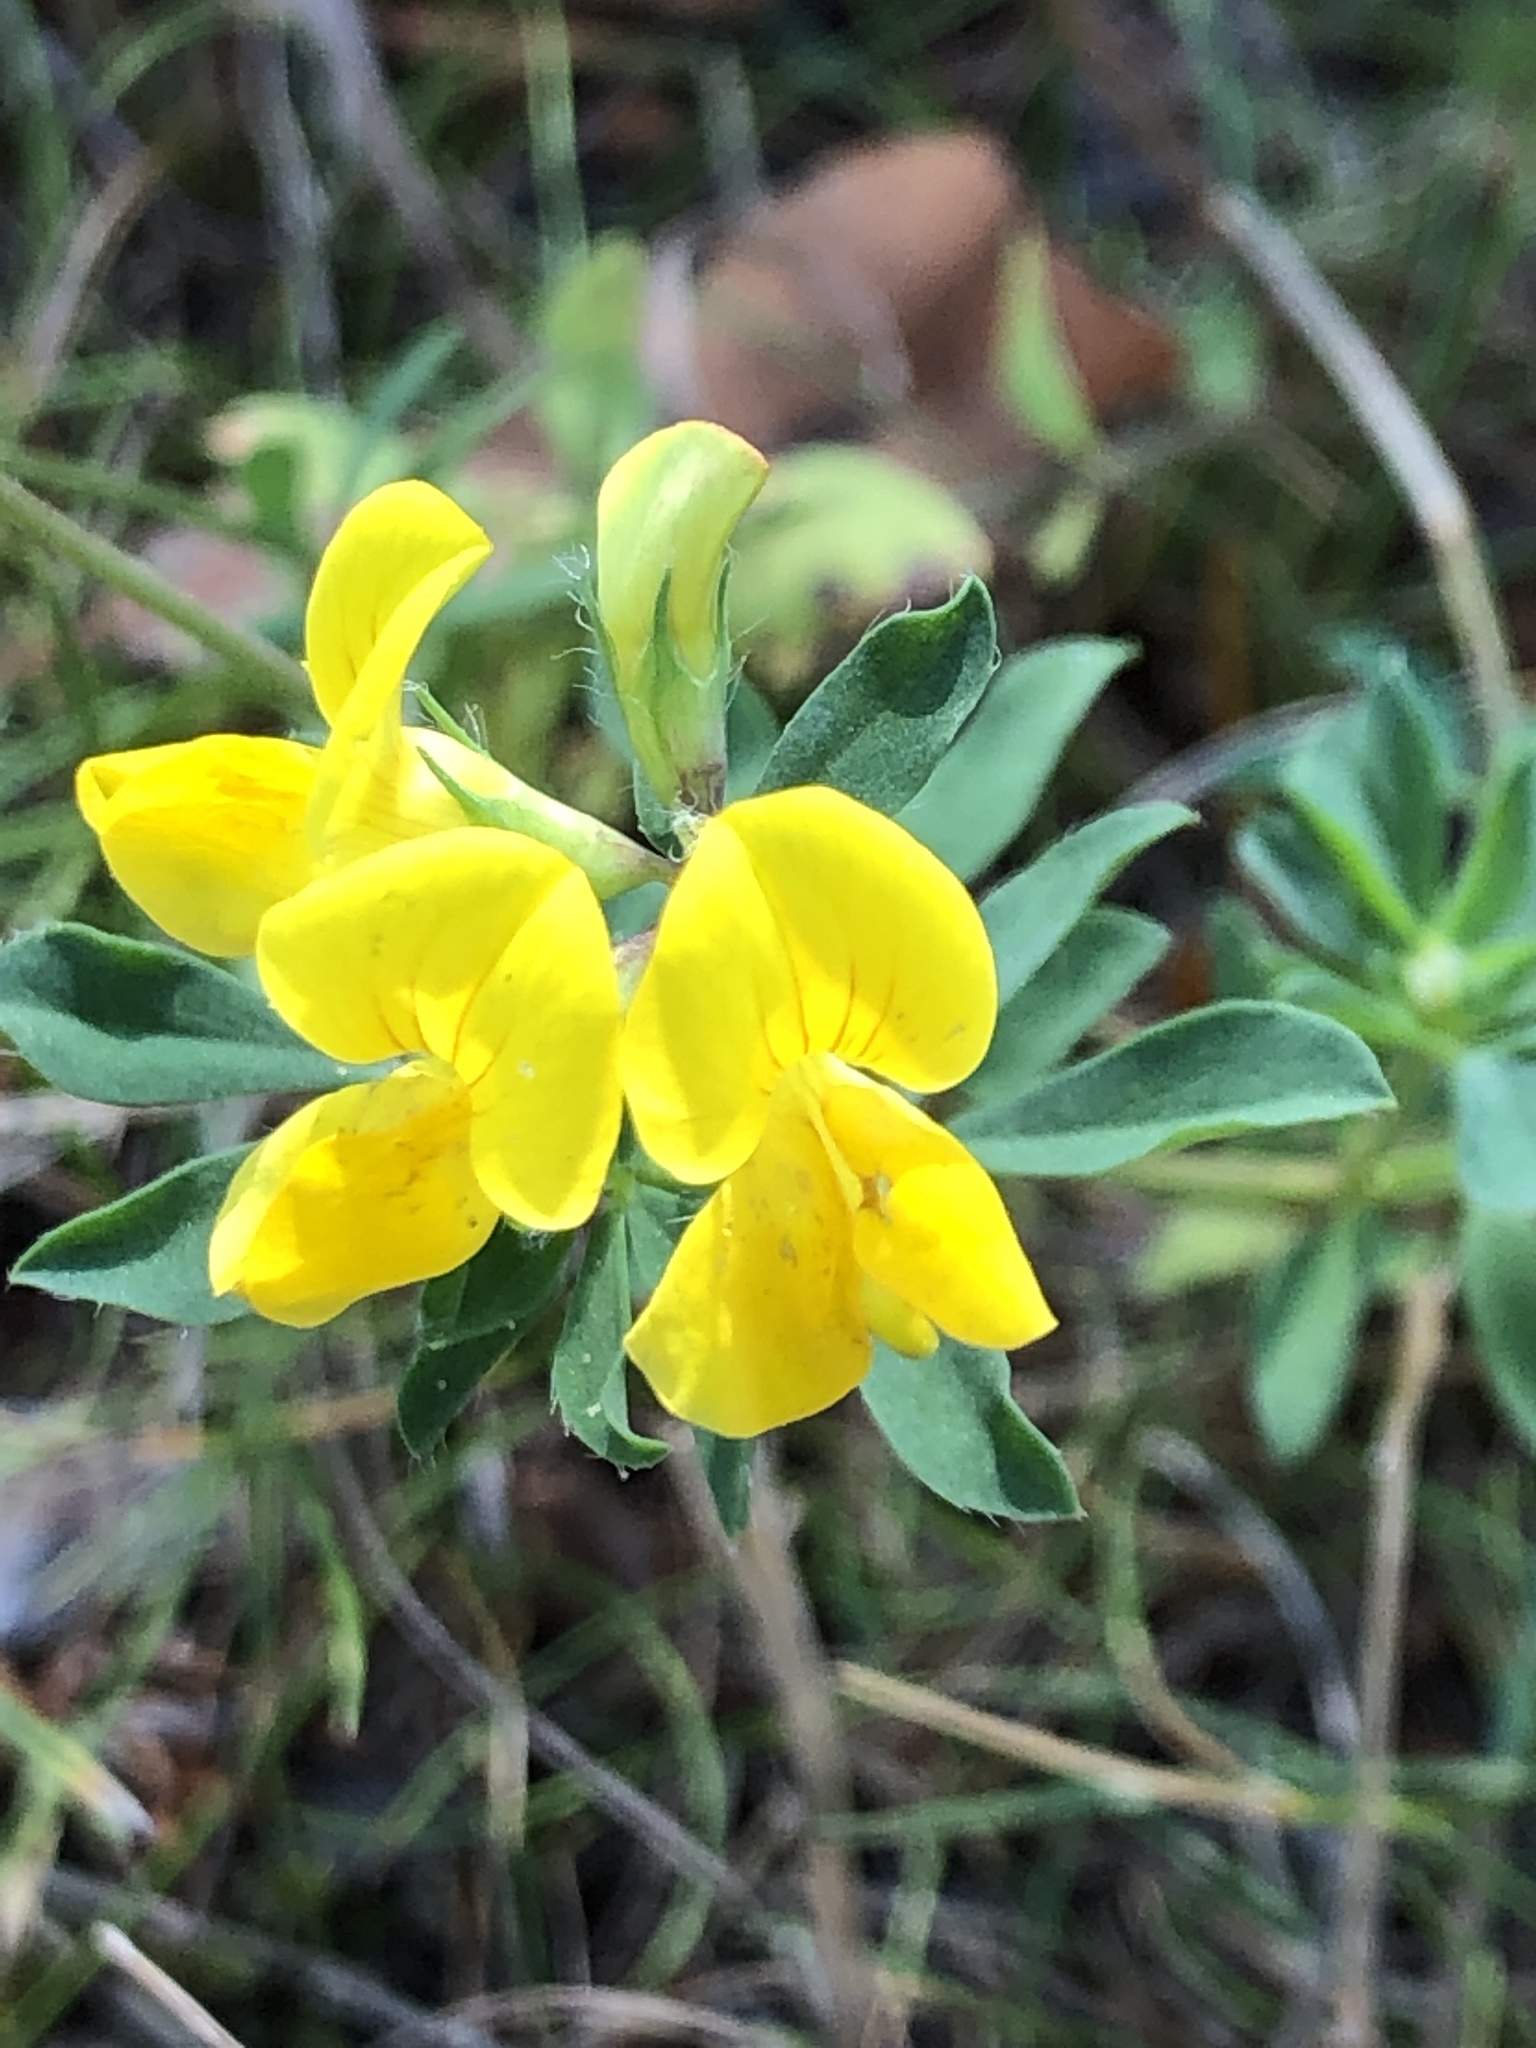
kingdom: Plantae
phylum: Tracheophyta
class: Magnoliopsida
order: Fabales
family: Fabaceae
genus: Lotus
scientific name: Lotus corniculatus
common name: Common bird's-foot-trefoil
